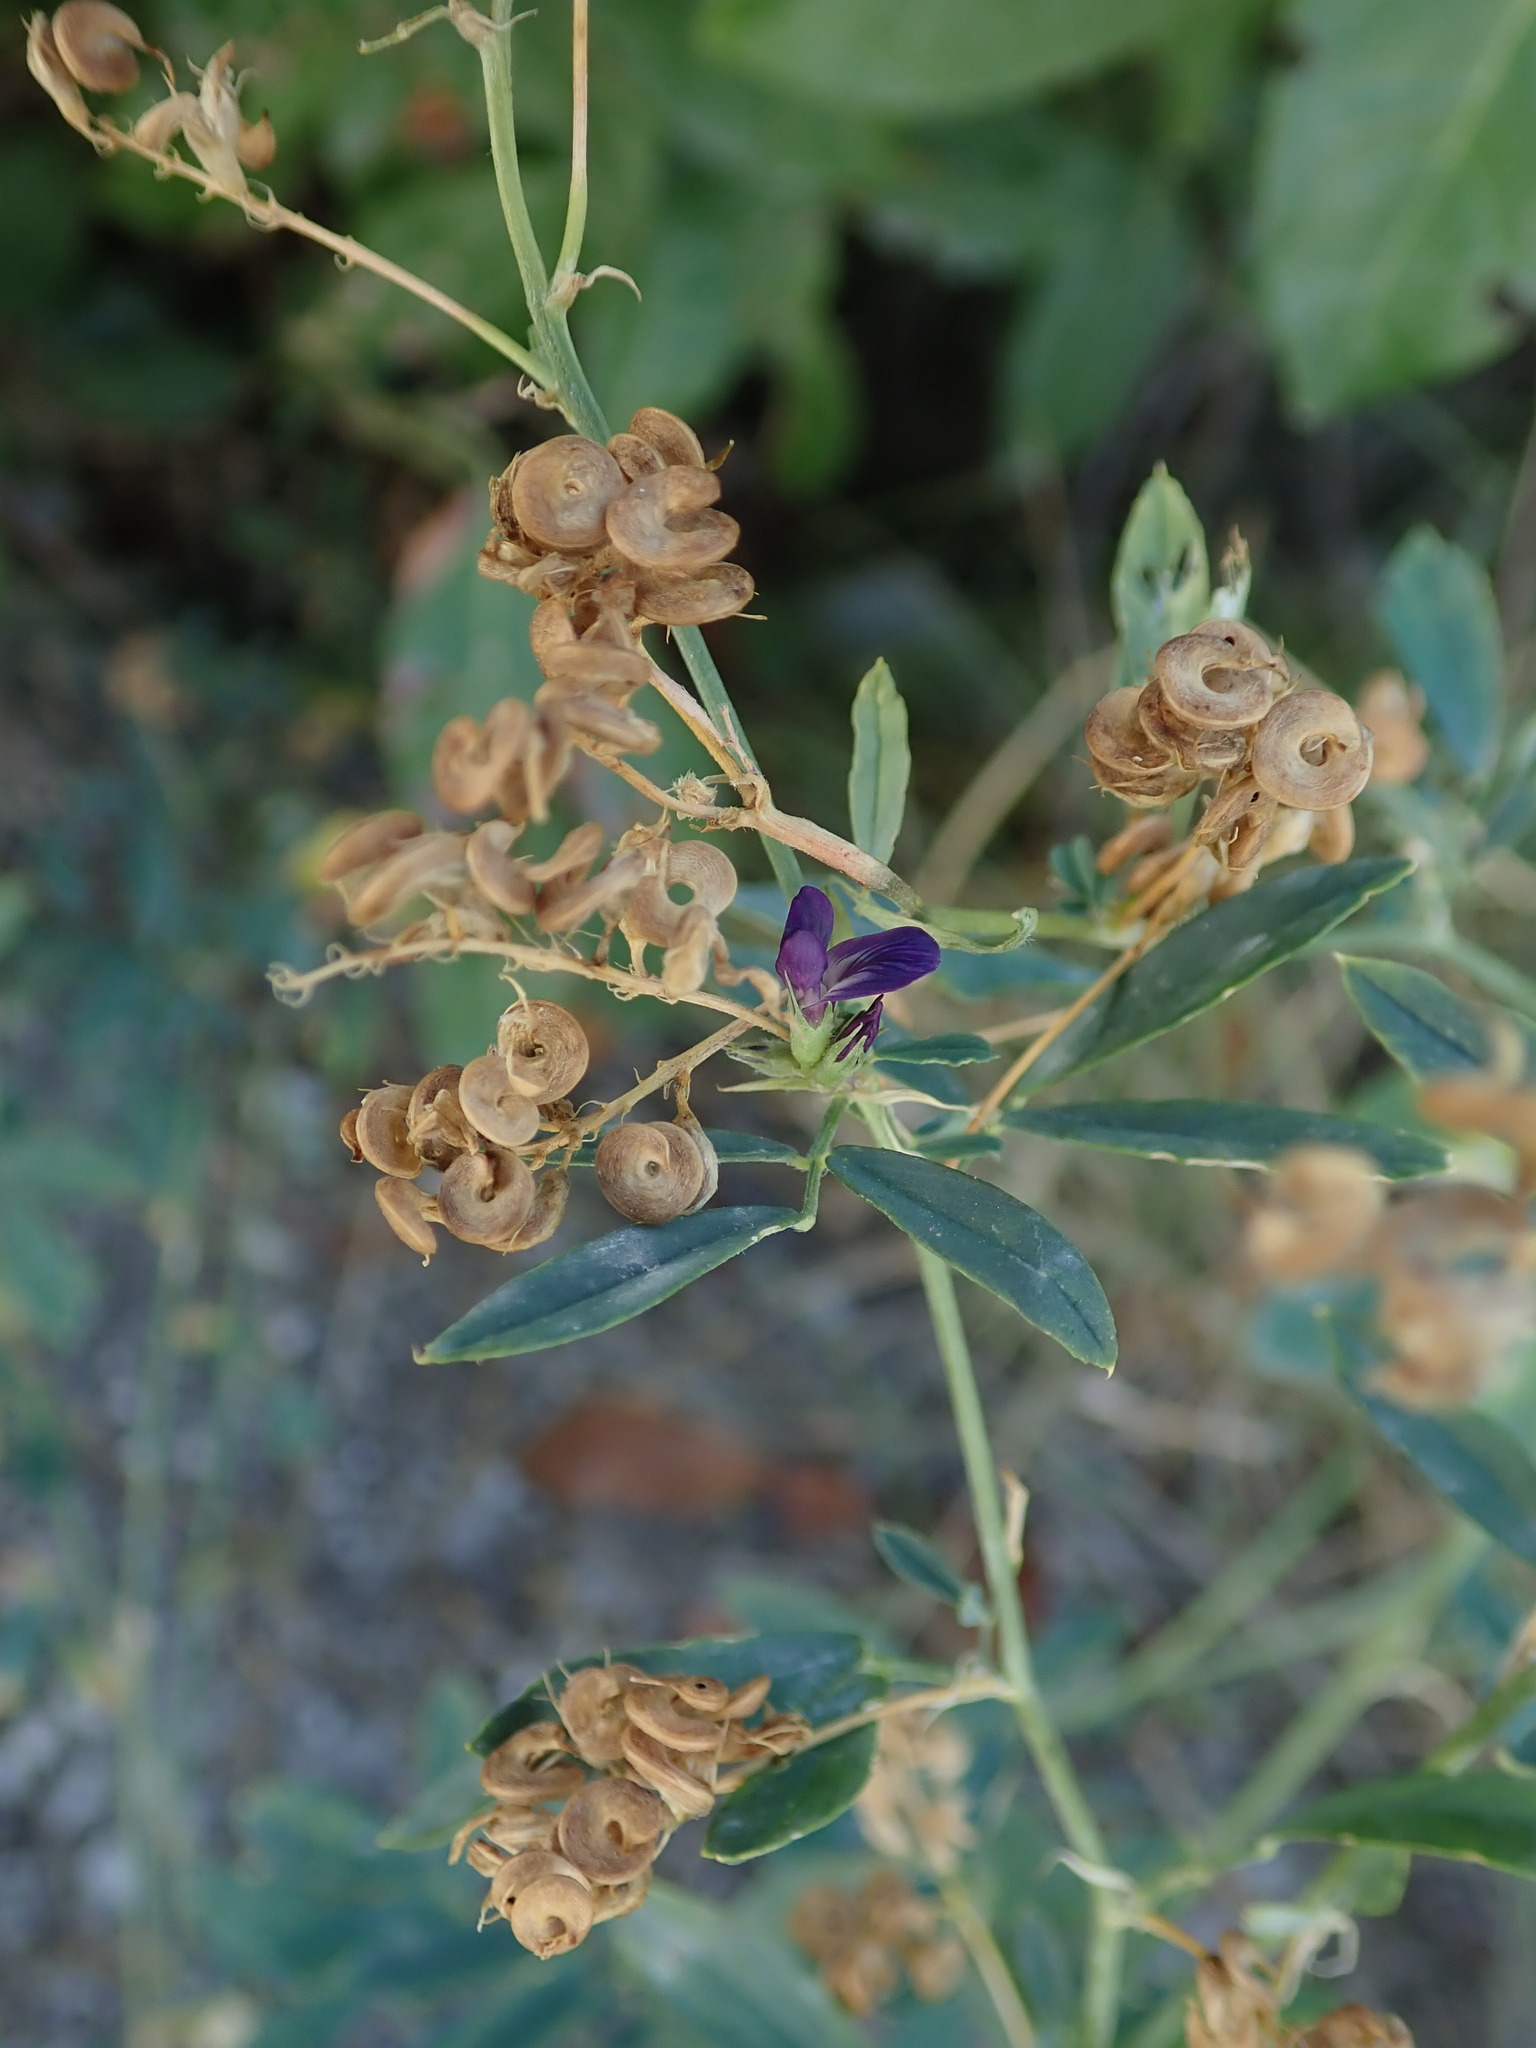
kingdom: Plantae
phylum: Tracheophyta
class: Magnoliopsida
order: Fabales
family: Fabaceae
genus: Medicago
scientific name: Medicago sativa
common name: Alfalfa
